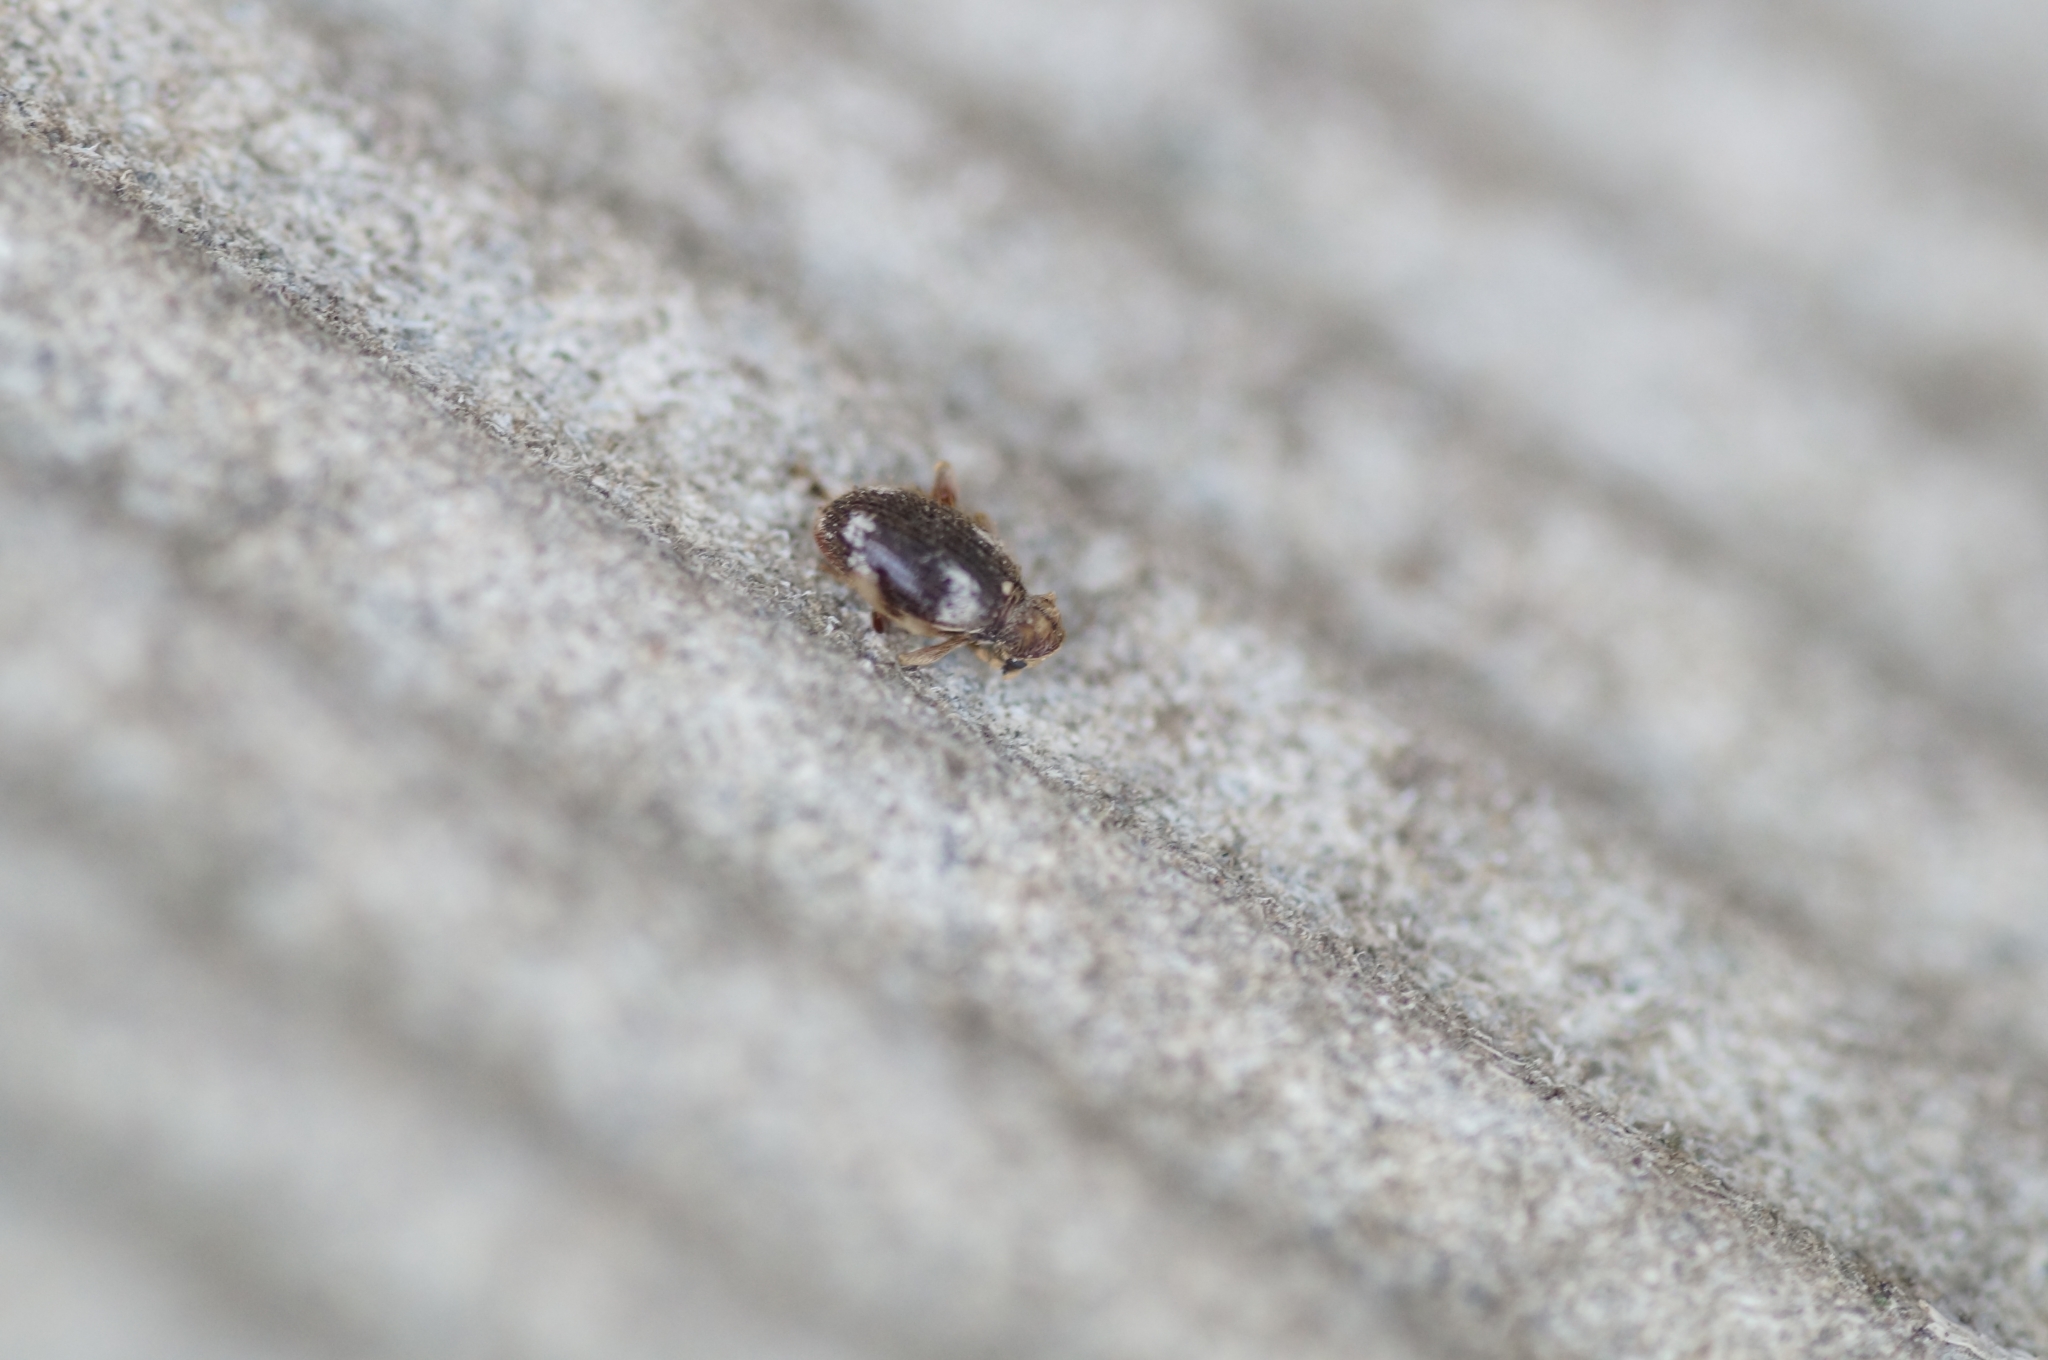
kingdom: Animalia
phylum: Arthropoda
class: Insecta
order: Coleoptera
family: Ptinidae
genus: Ptinus
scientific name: Ptinus
